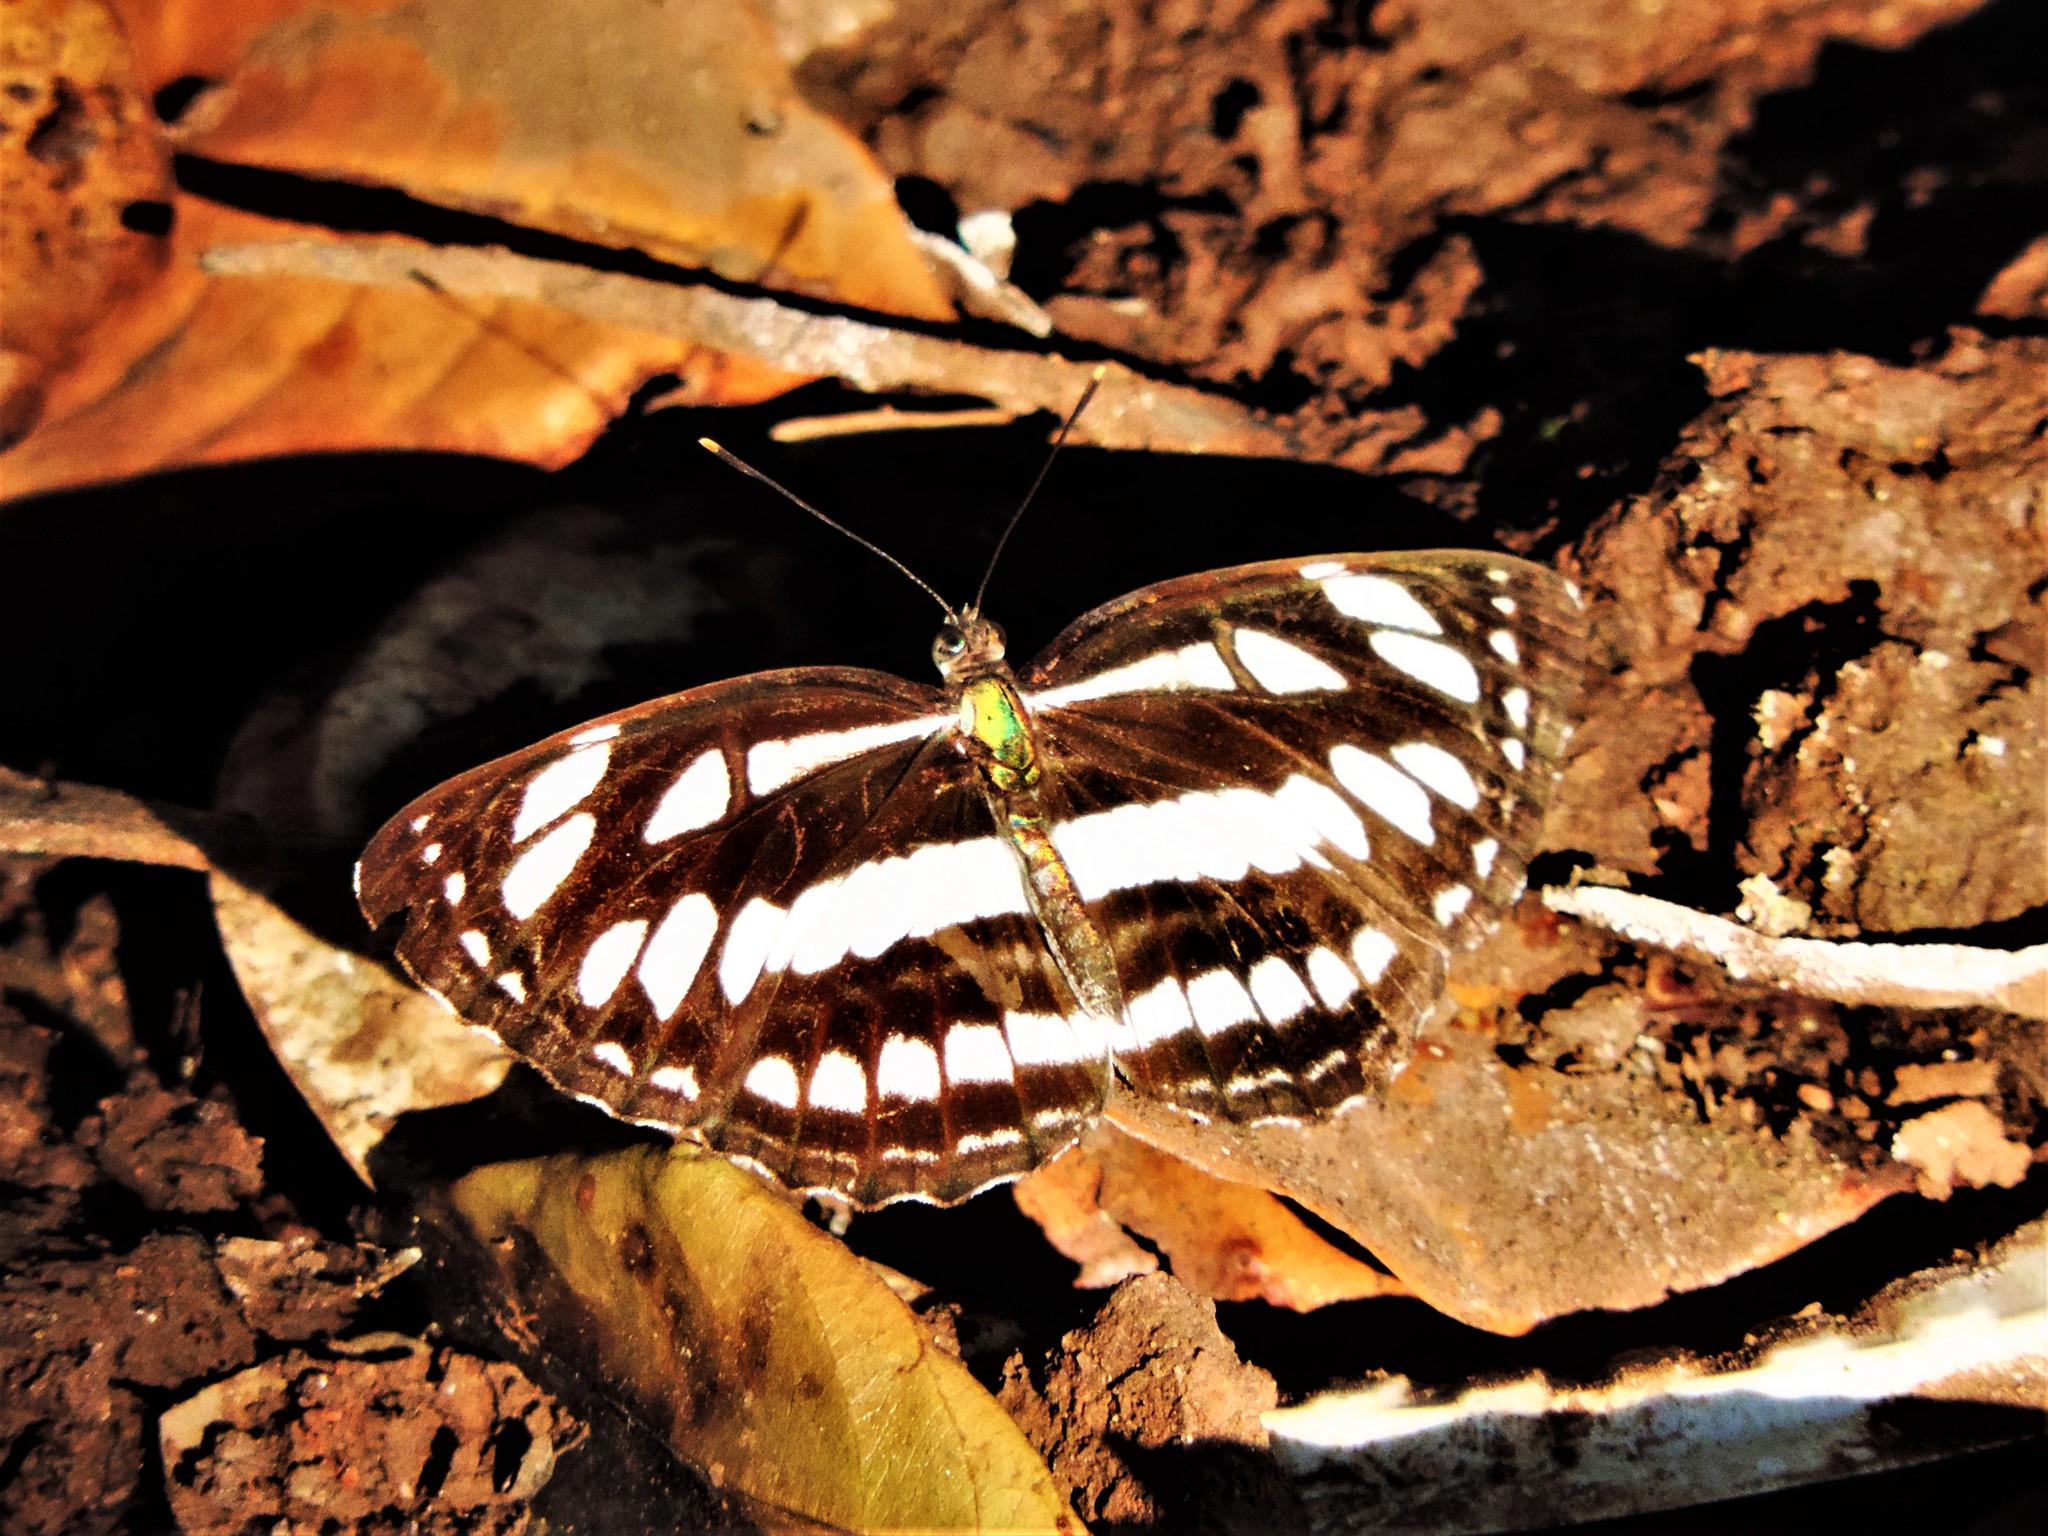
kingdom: Animalia
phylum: Arthropoda
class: Insecta
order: Lepidoptera
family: Nymphalidae
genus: Neptis
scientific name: Neptis hylas
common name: Common sailer
